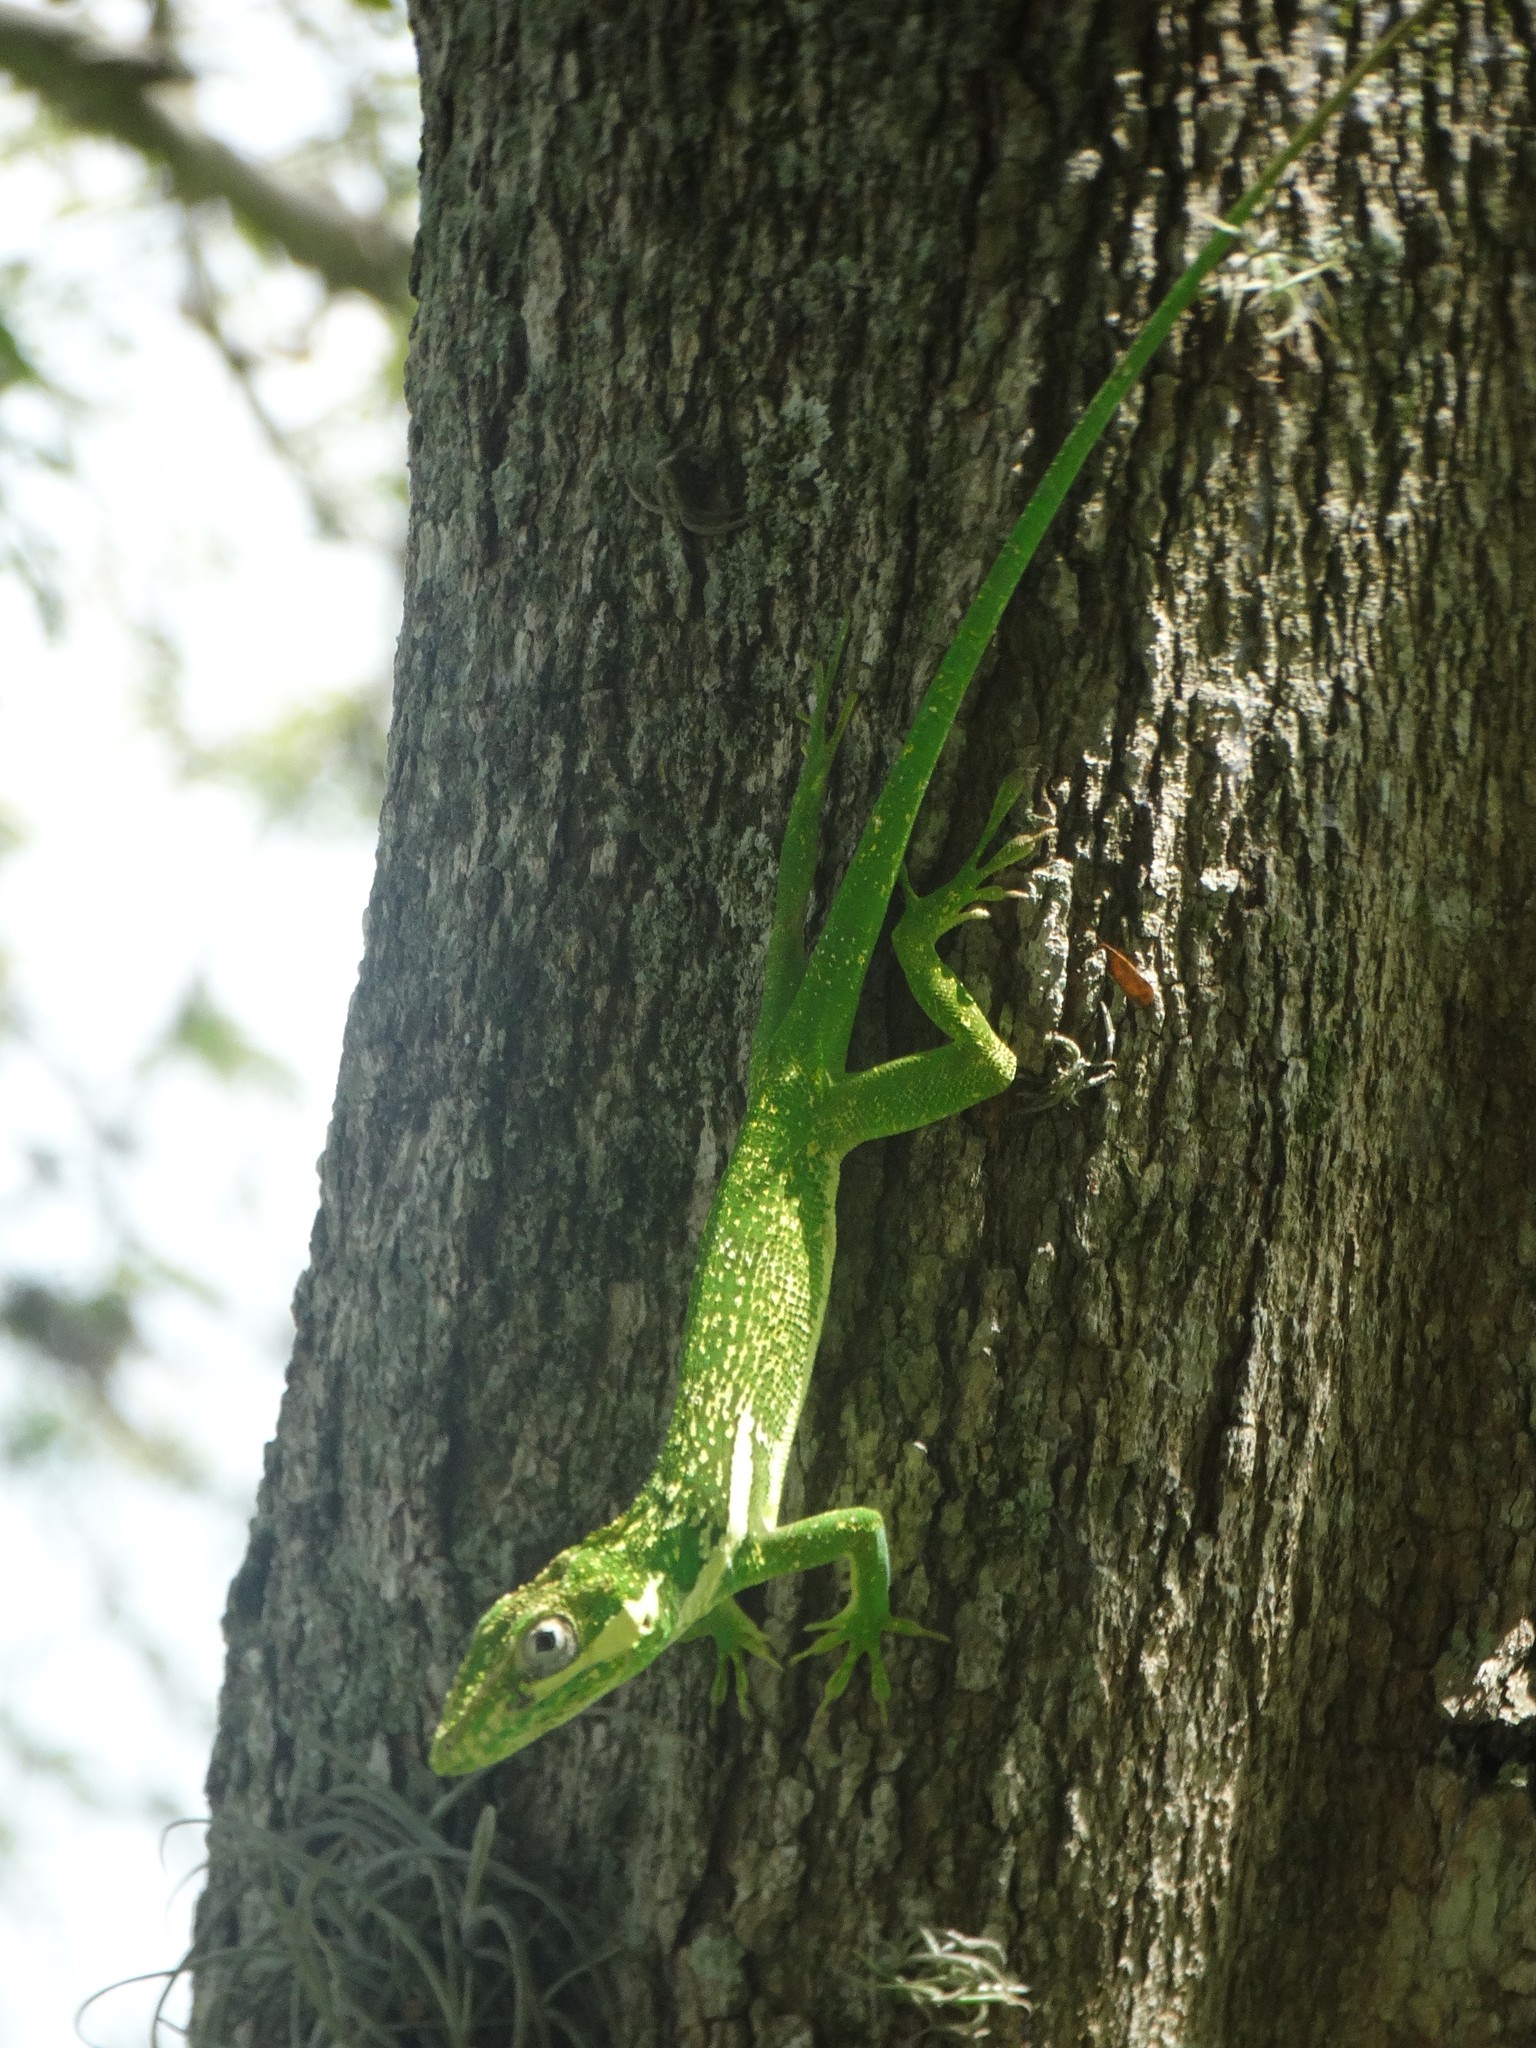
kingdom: Animalia
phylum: Chordata
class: Squamata
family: Dactyloidae
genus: Anolis
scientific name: Anolis equestris
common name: Knight anole
